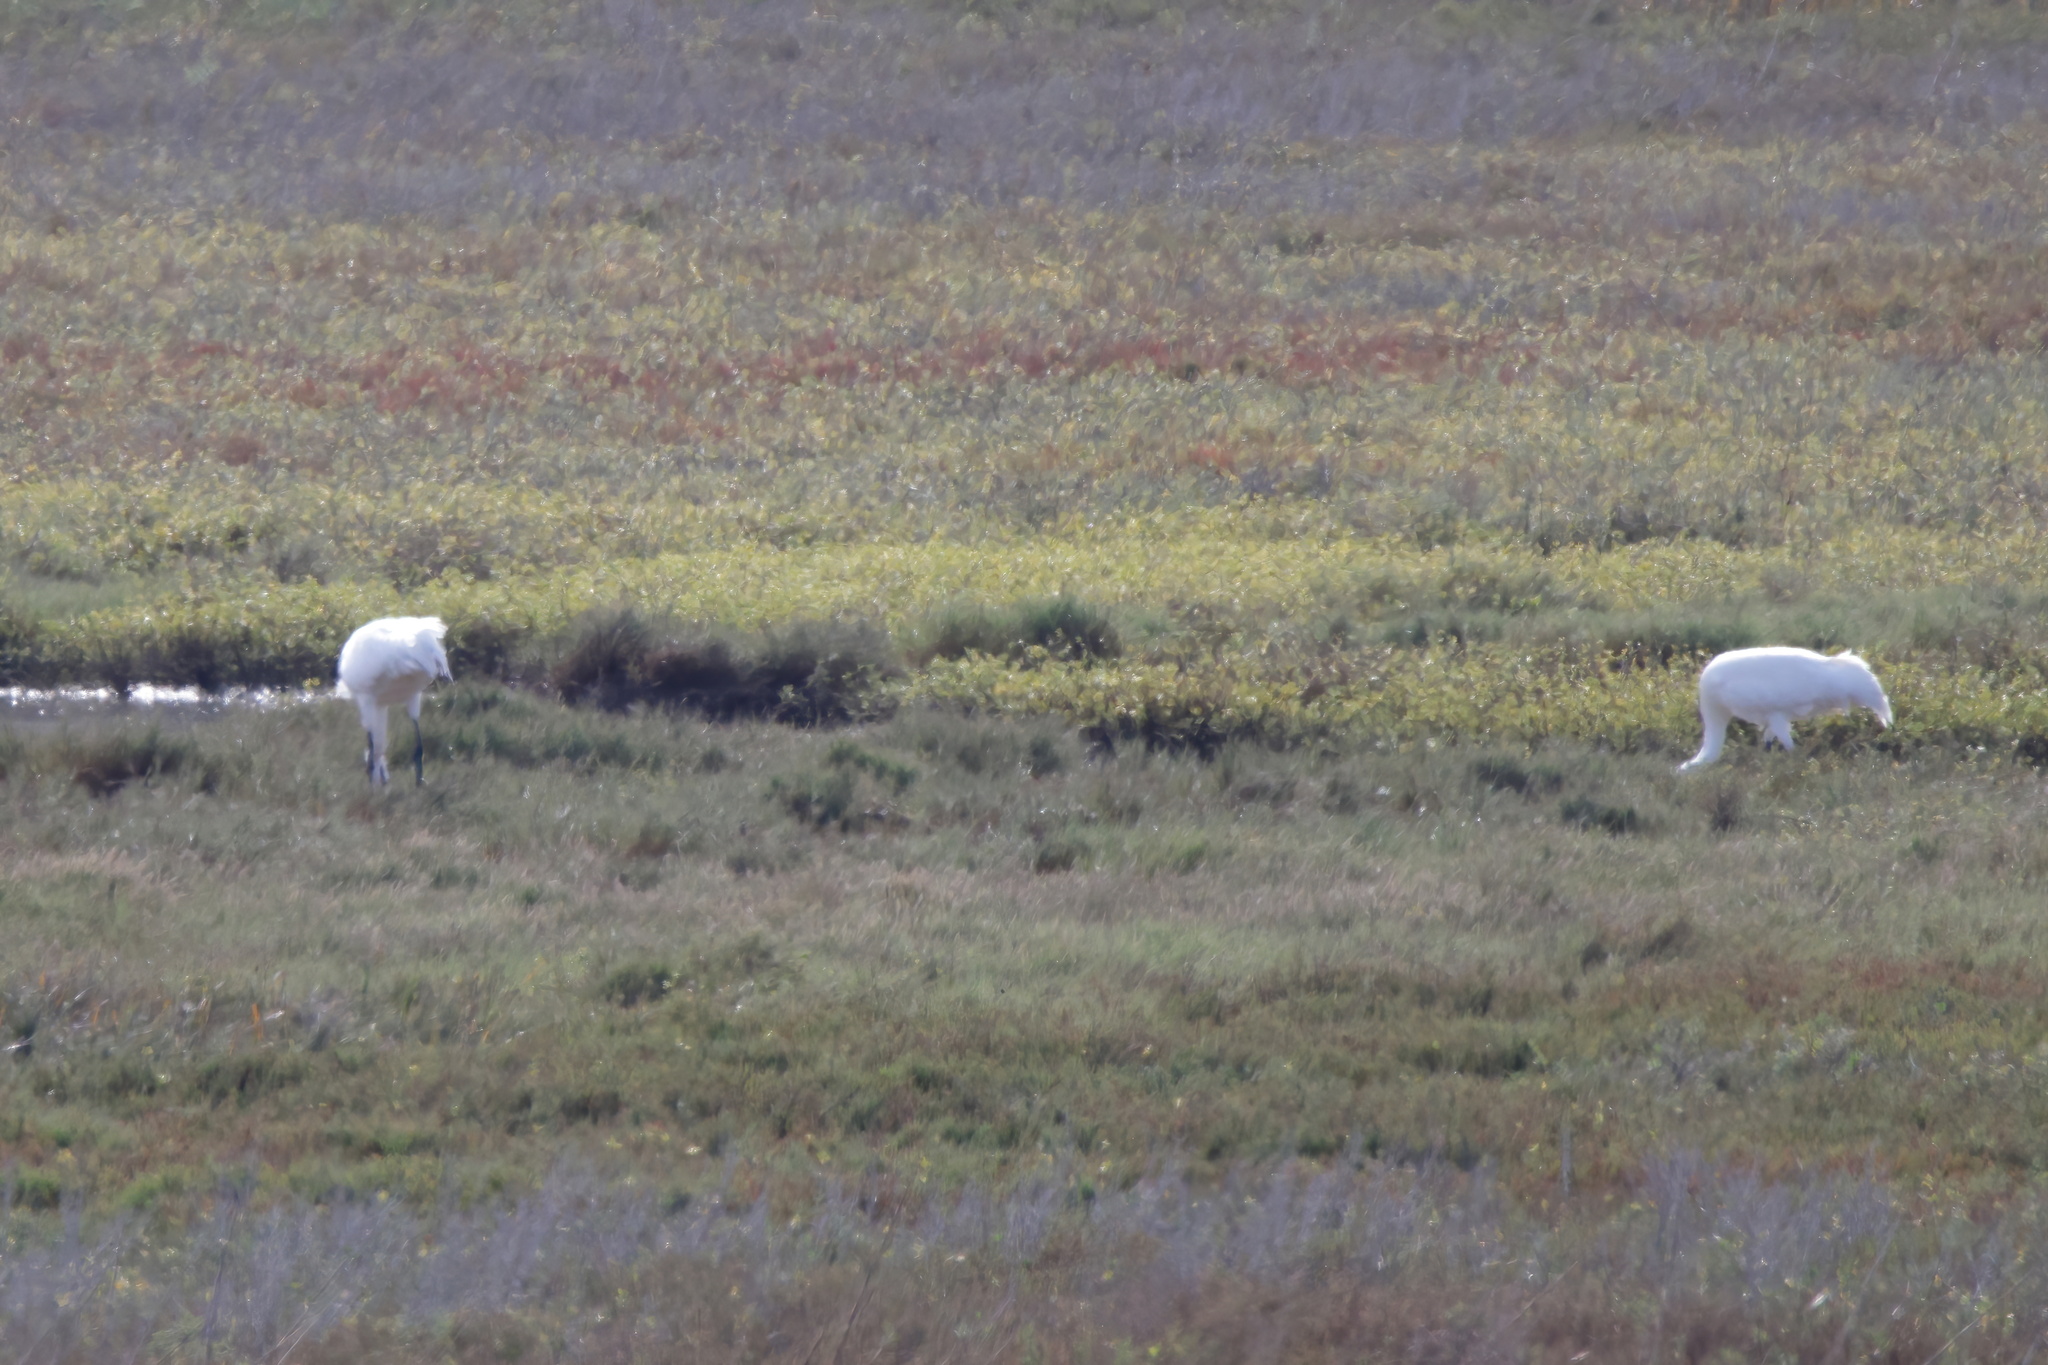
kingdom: Animalia
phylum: Chordata
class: Aves
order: Gruiformes
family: Gruidae
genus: Grus
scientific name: Grus americana
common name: Whooping crane
